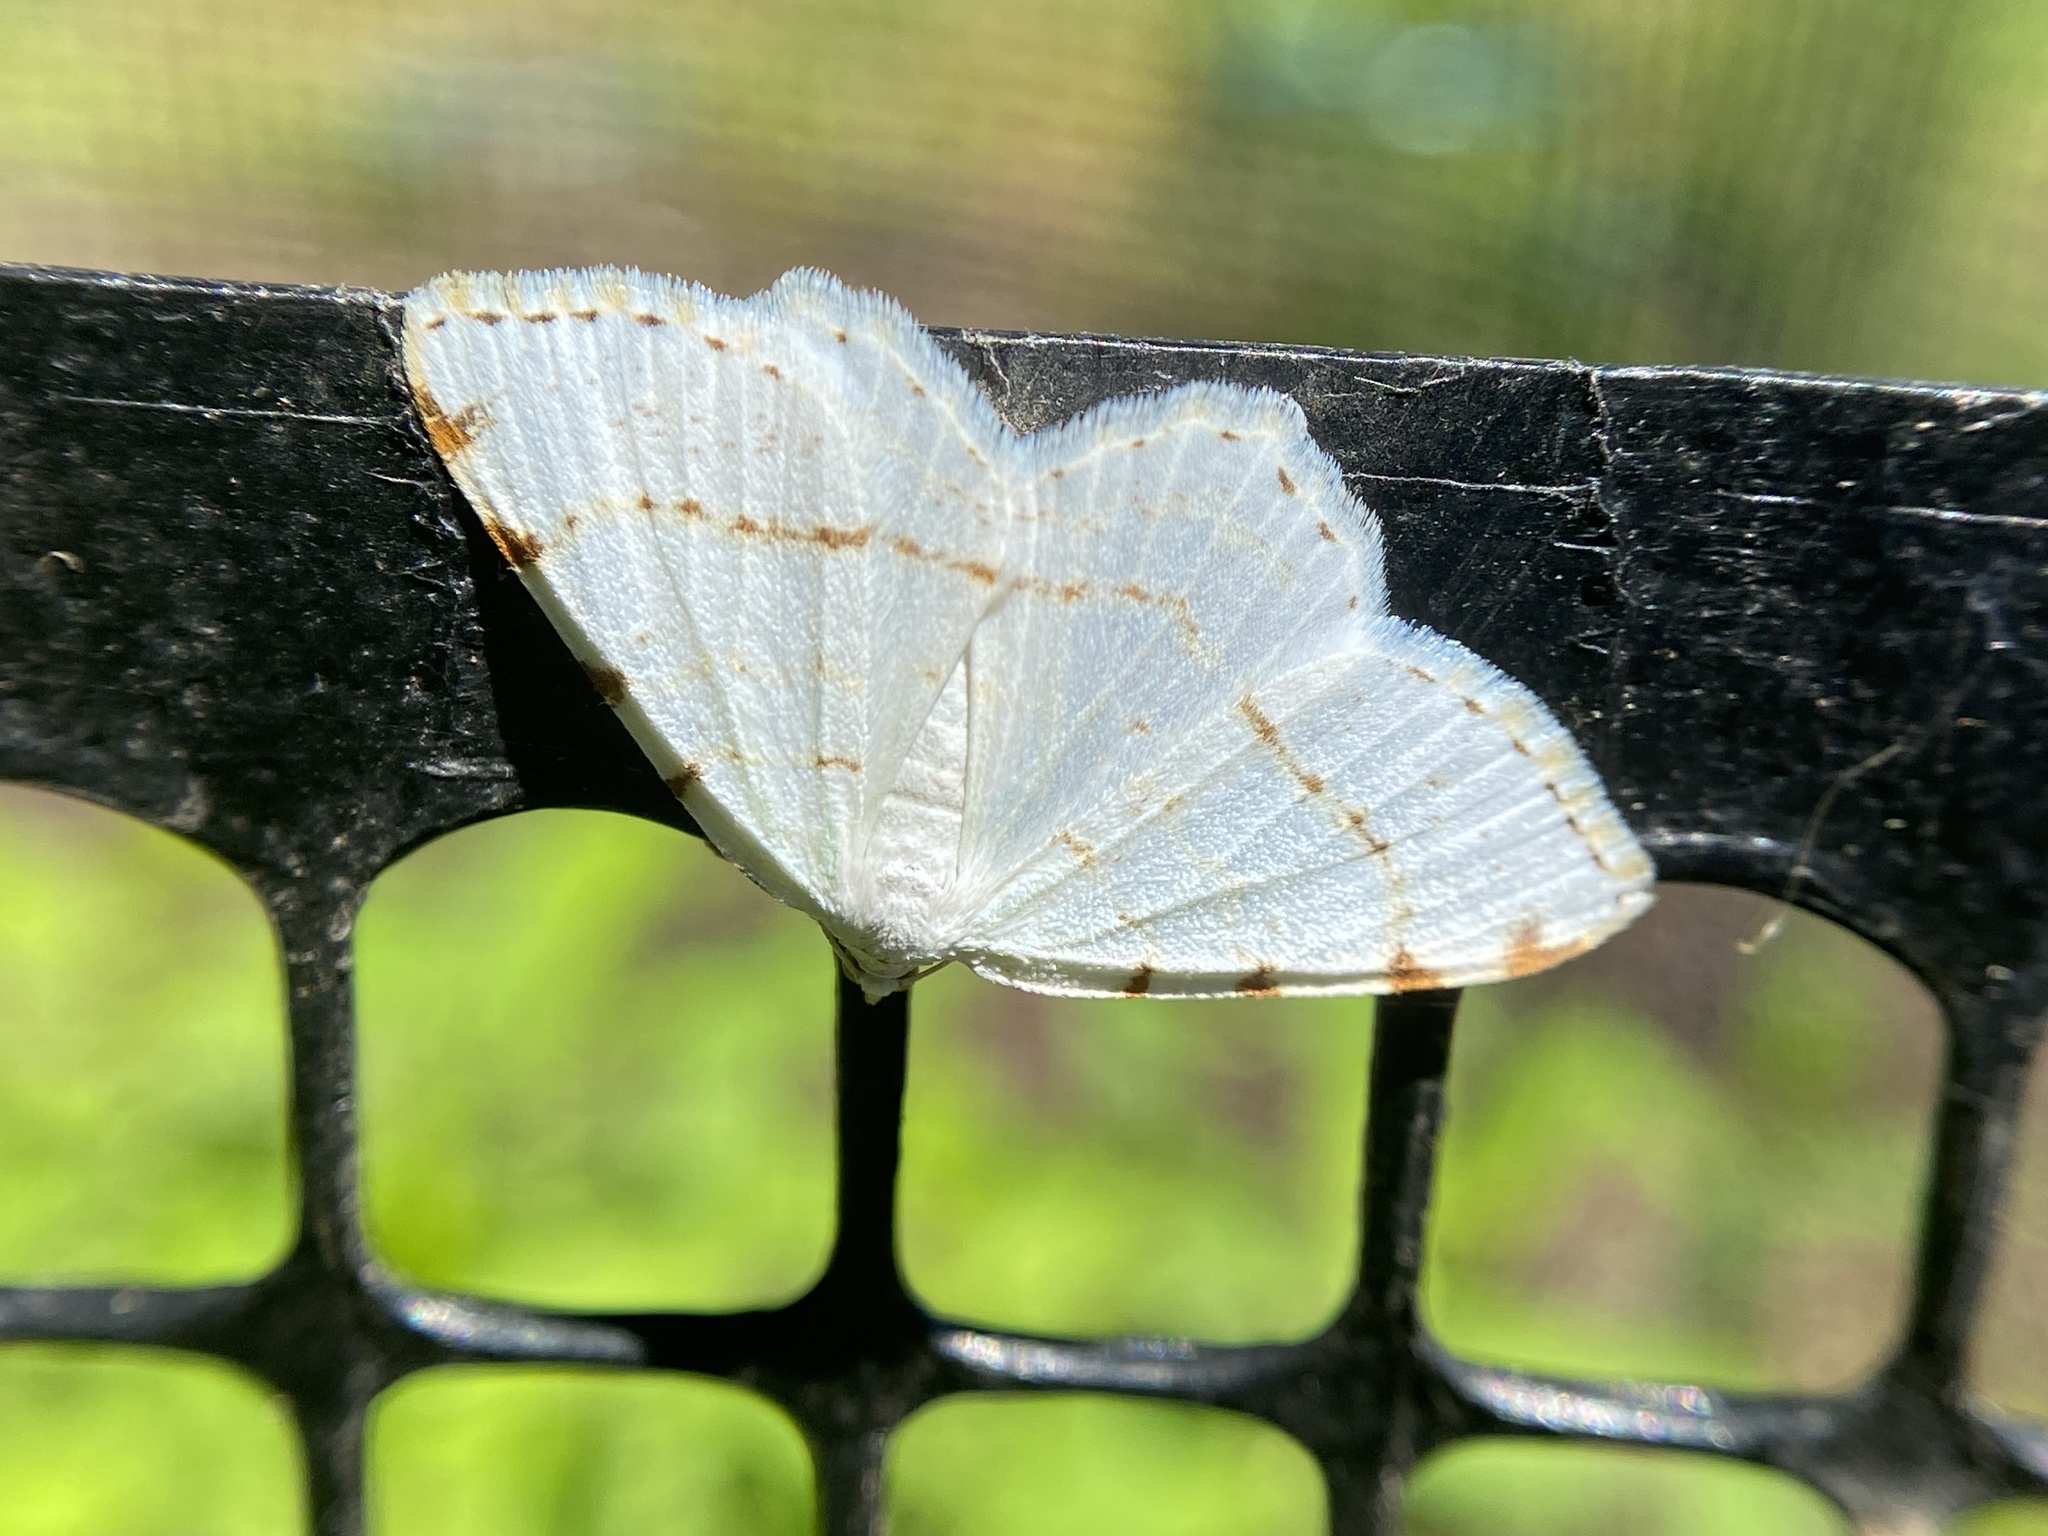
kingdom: Animalia
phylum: Arthropoda
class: Insecta
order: Lepidoptera
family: Geometridae
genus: Macaria
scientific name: Macaria pustularia
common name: Lesser maple spanworm moth
